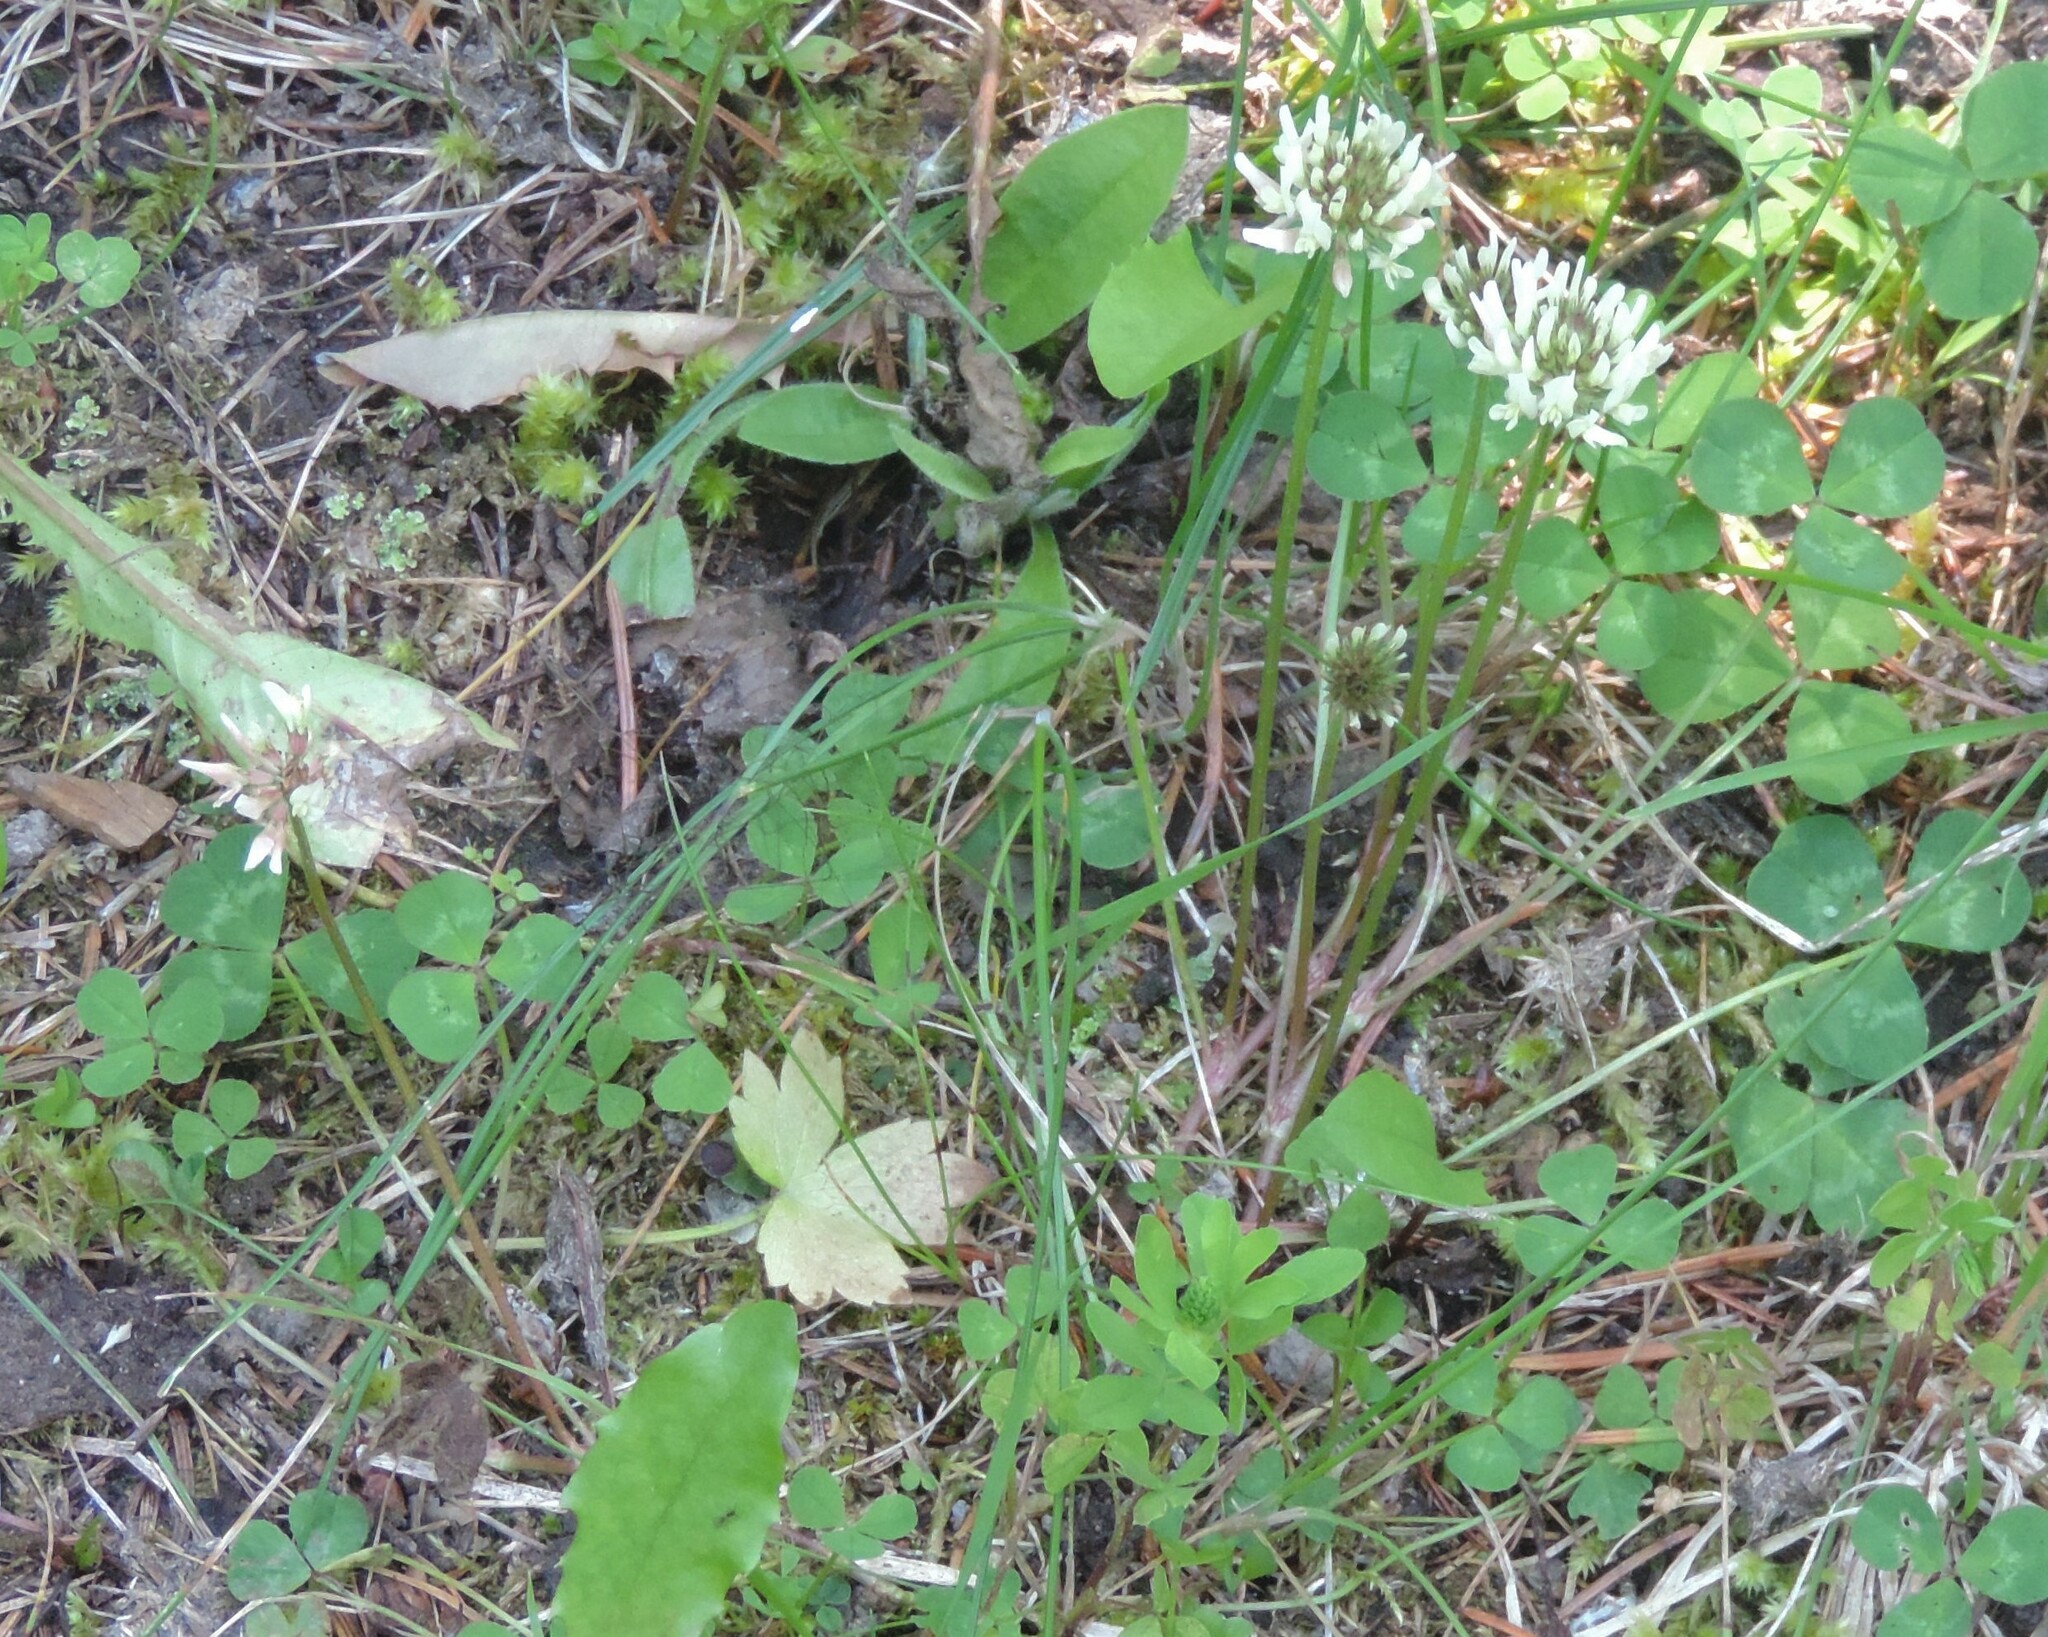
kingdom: Plantae
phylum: Tracheophyta
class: Magnoliopsida
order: Fabales
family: Fabaceae
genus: Trifolium
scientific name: Trifolium repens
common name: White clover
